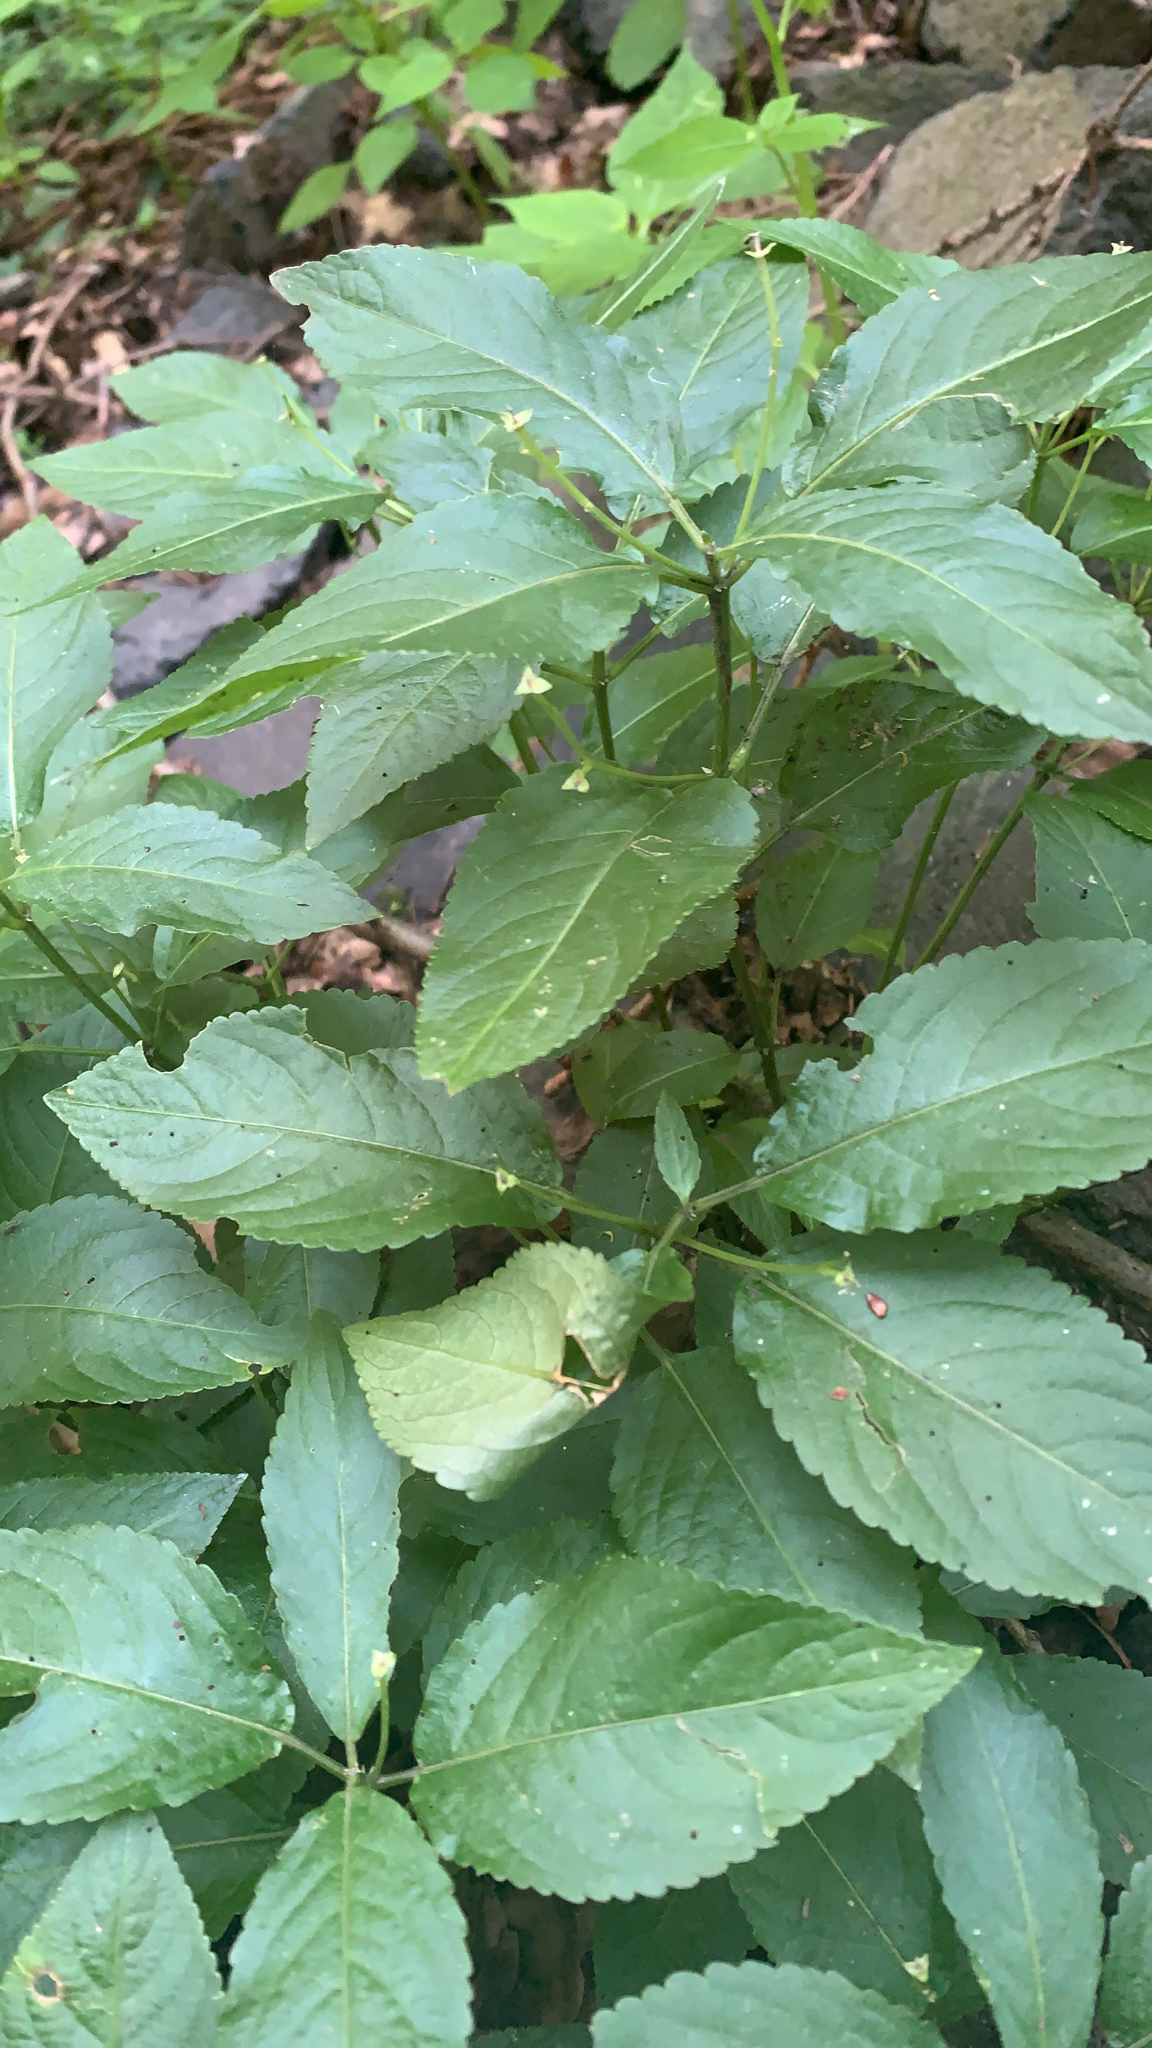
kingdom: Plantae
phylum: Tracheophyta
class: Magnoliopsida
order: Malpighiales
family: Euphorbiaceae
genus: Mercurialis
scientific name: Mercurialis perennis
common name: Dog mercury
